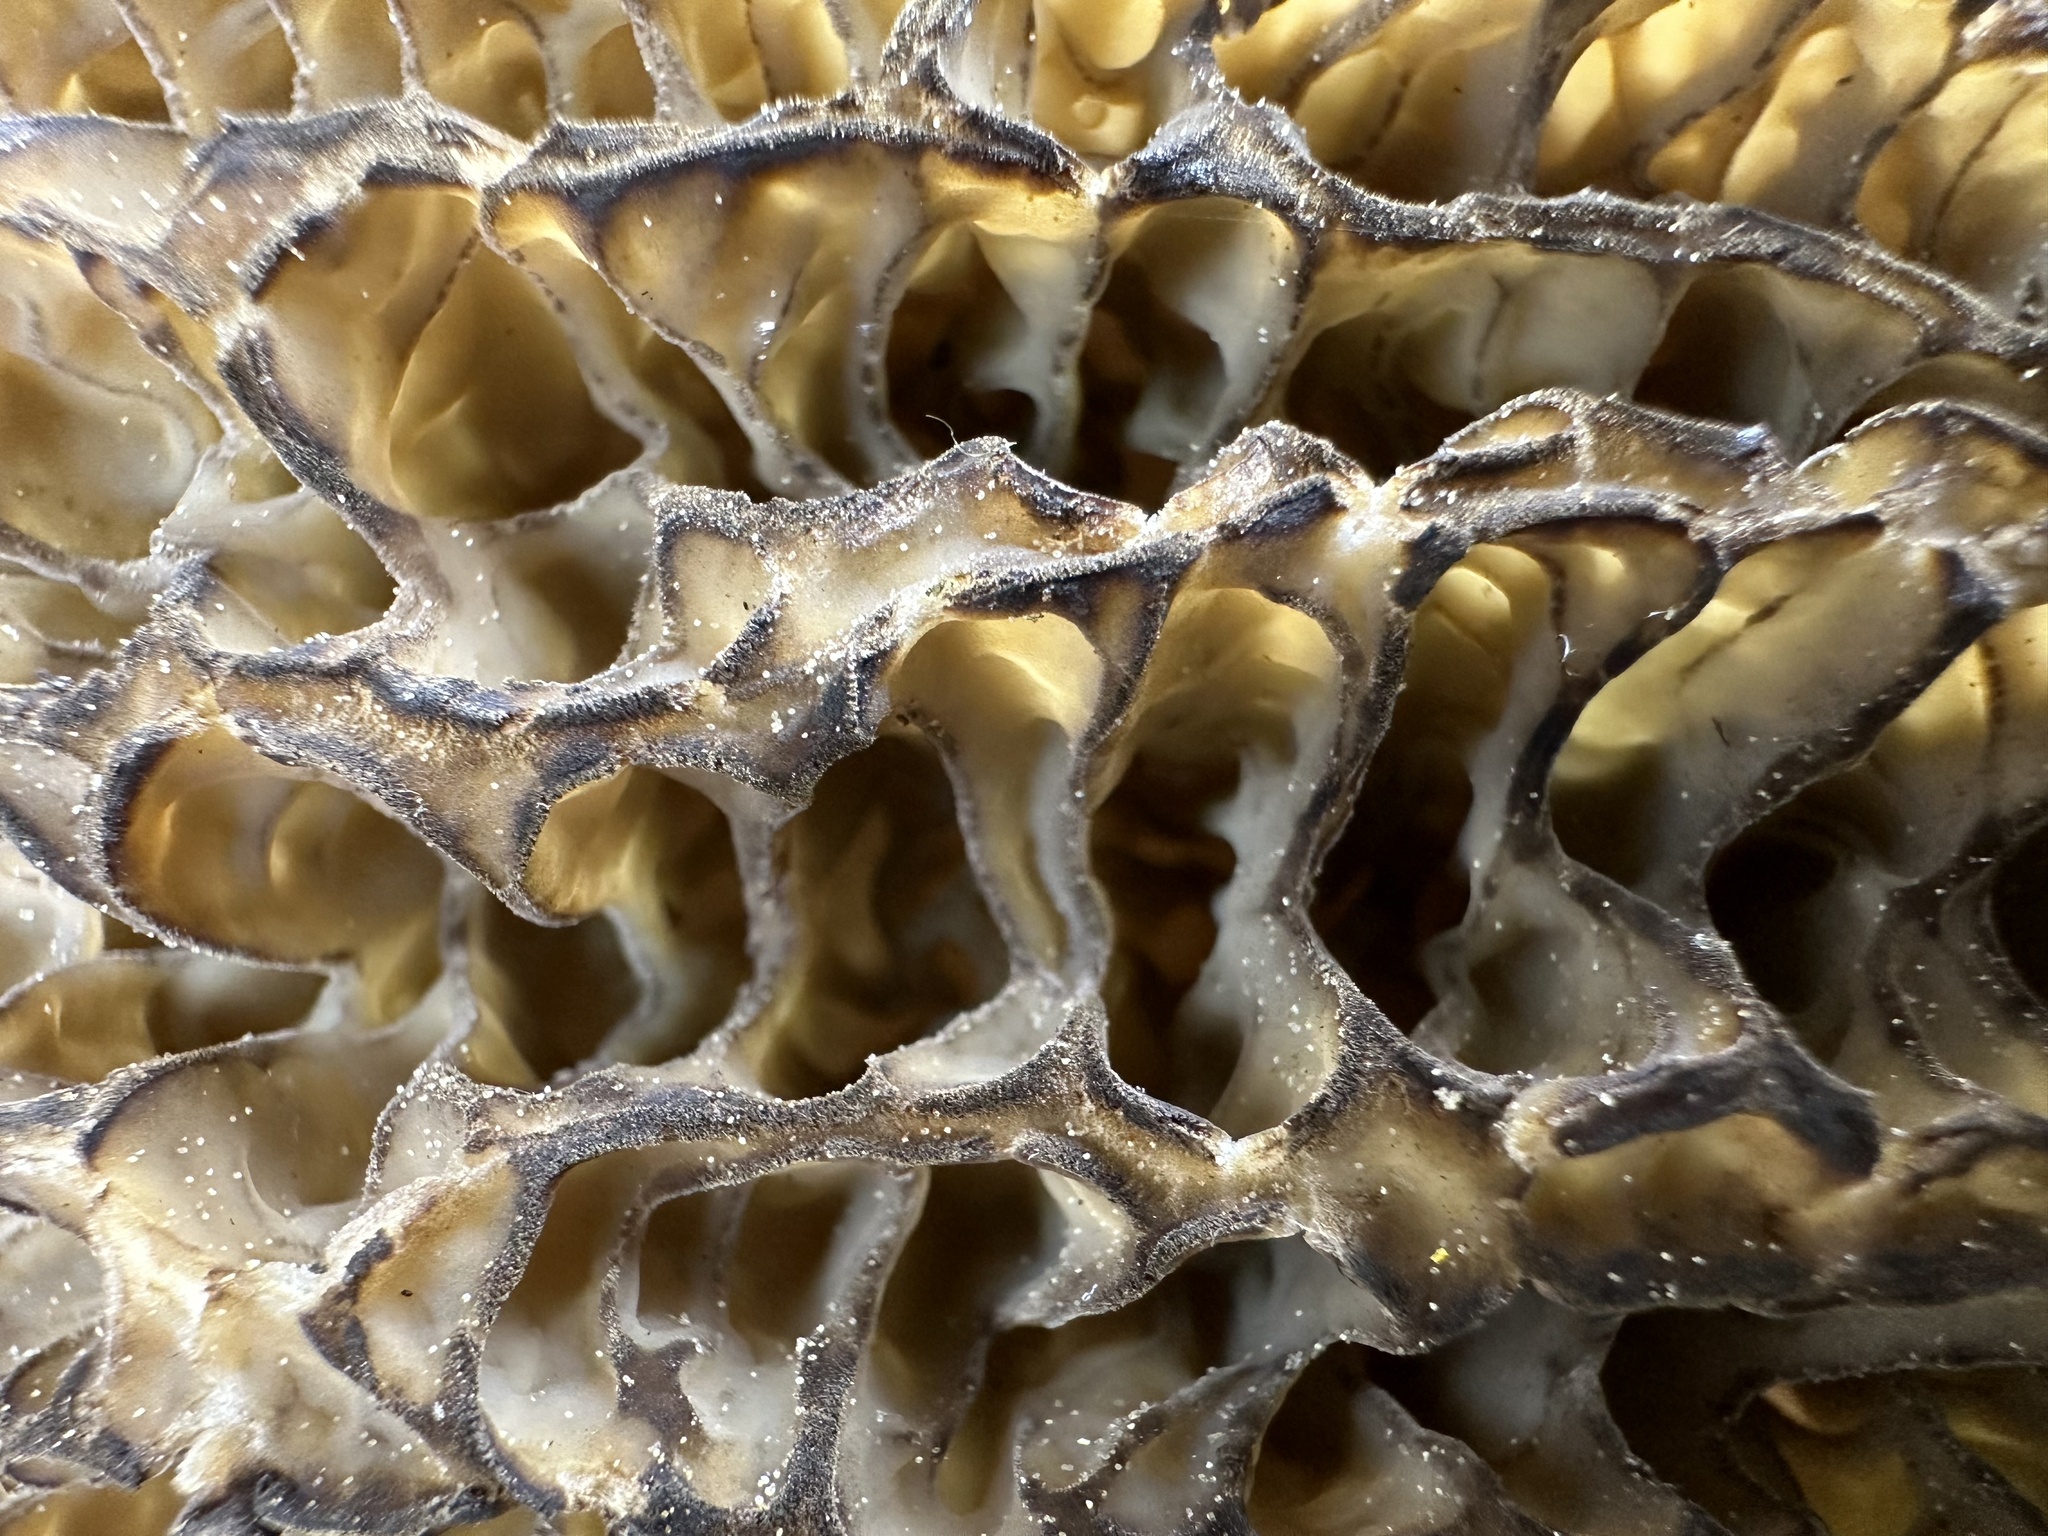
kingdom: Fungi
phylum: Ascomycota
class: Pezizomycetes
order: Pezizales
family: Morchellaceae
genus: Morchella
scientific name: Morchella importuna
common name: Landscaping black morel
